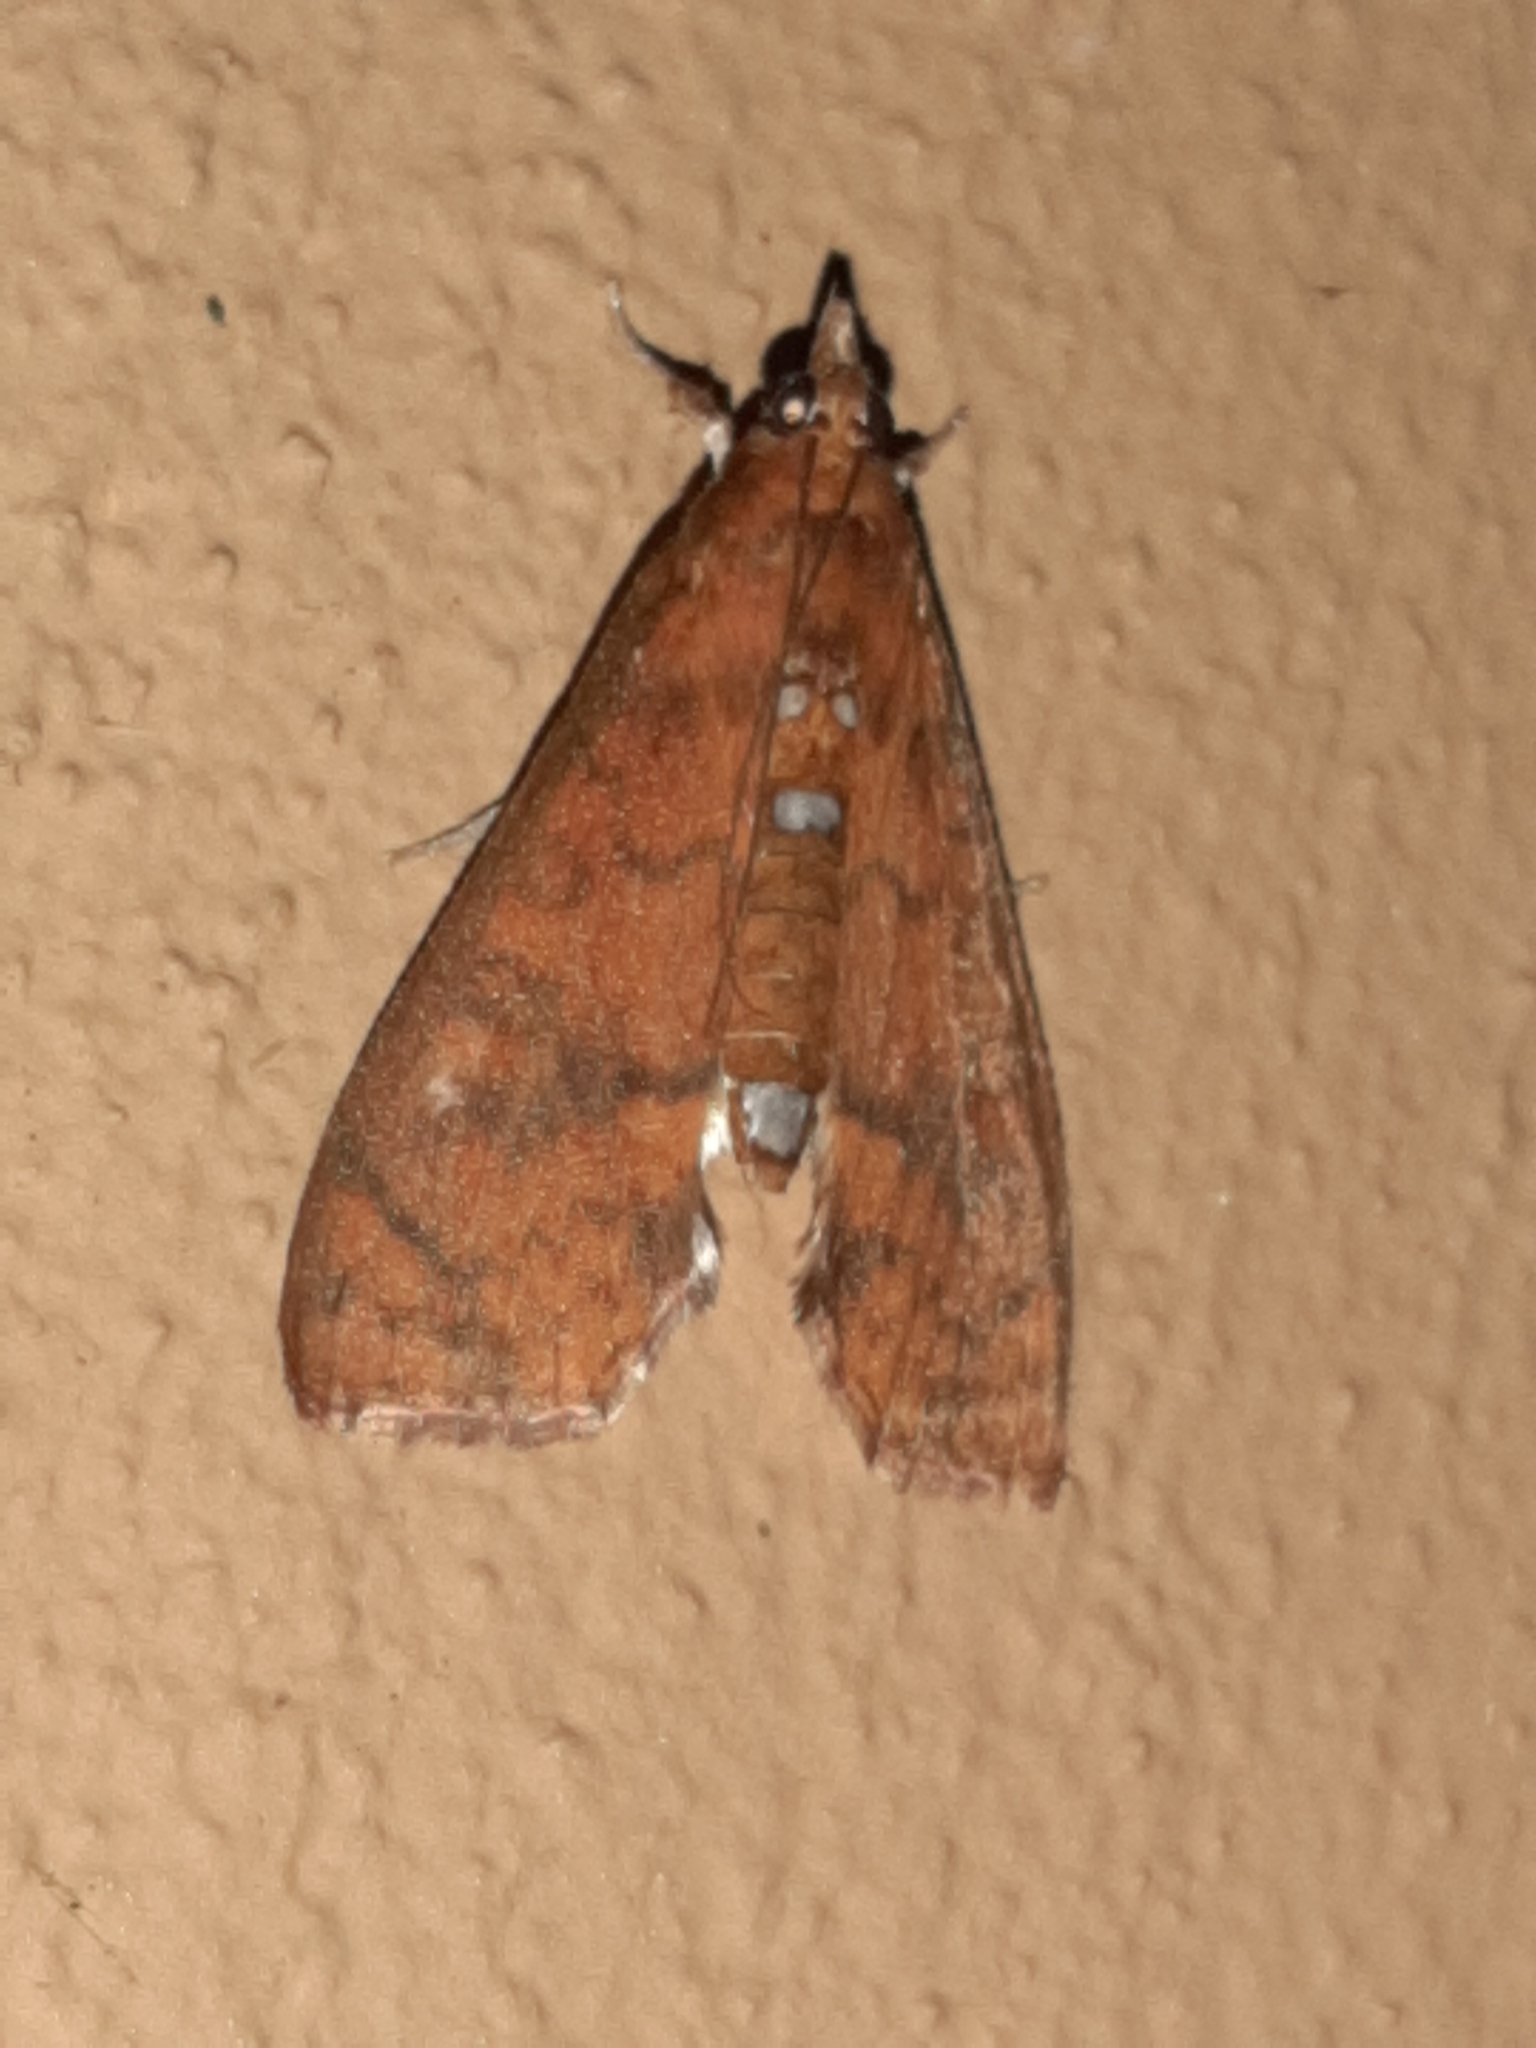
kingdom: Animalia
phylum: Arthropoda
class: Insecta
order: Lepidoptera
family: Crambidae
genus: Liopasia
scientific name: Liopasia ochracealis
